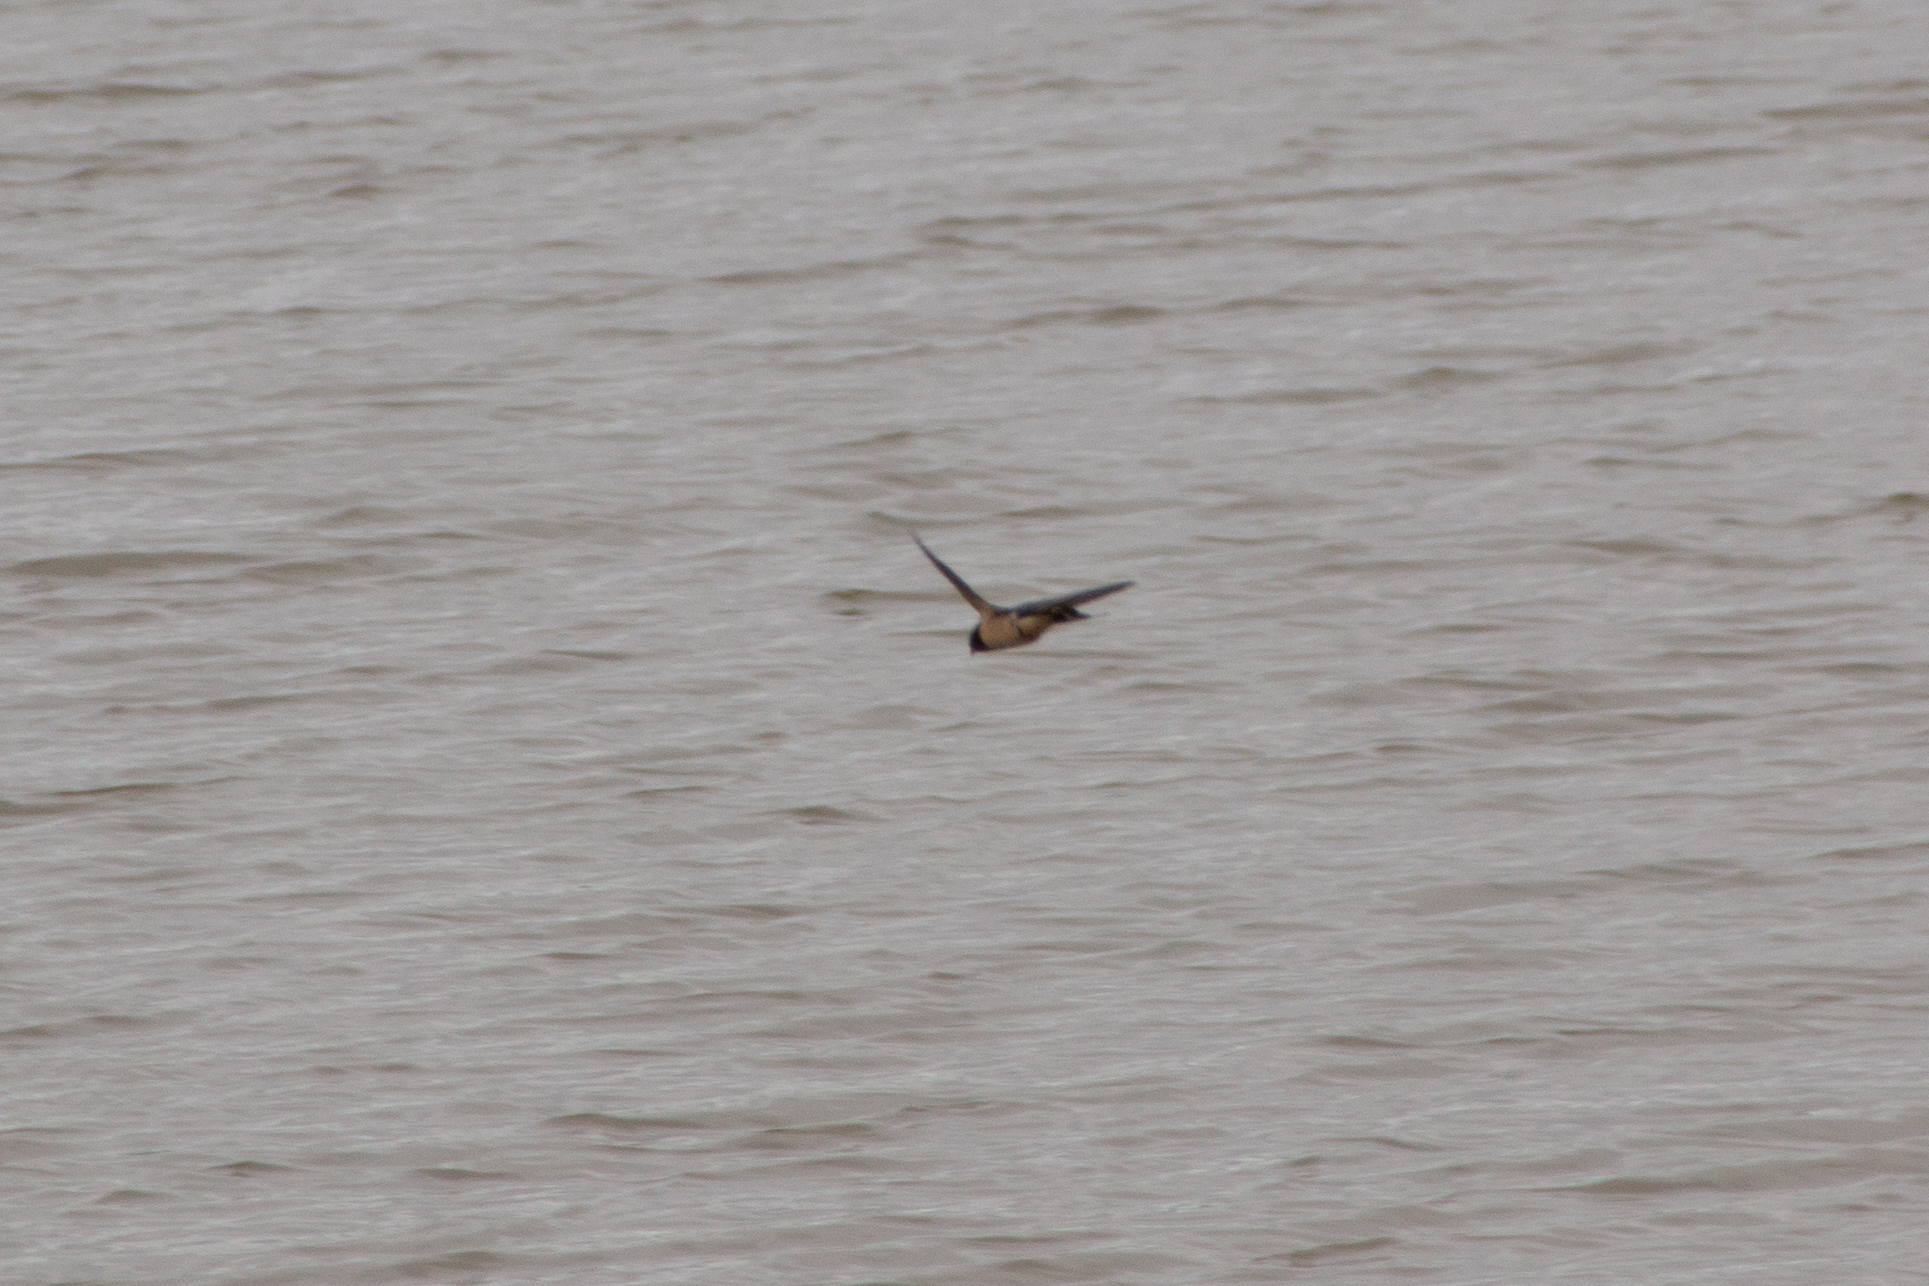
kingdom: Animalia
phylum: Chordata
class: Aves
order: Passeriformes
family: Hirundinidae
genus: Hirundo
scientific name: Hirundo rustica
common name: Barn swallow
